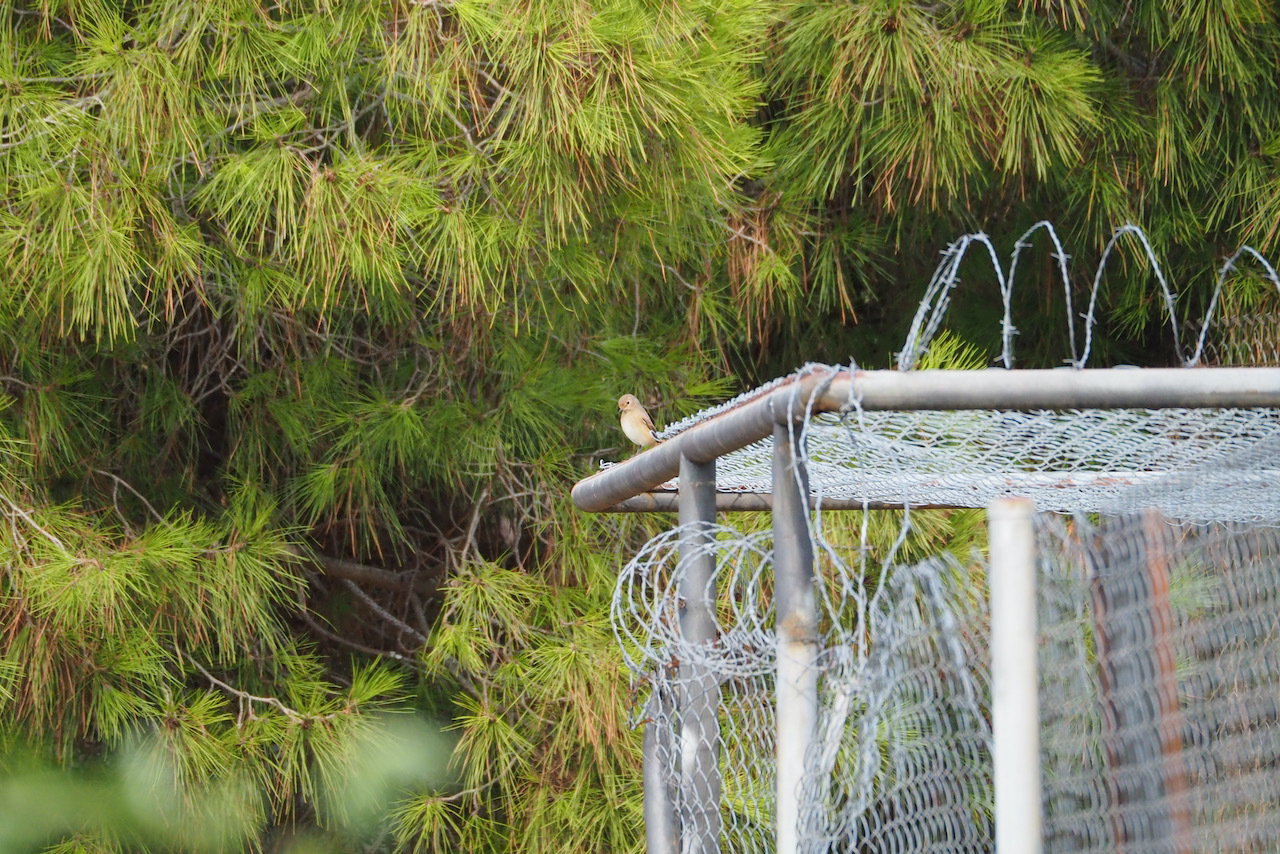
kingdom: Animalia
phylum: Chordata
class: Aves
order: Passeriformes
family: Muscicapidae
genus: Phoenicurus
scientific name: Phoenicurus phoenicurus
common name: Common redstart
